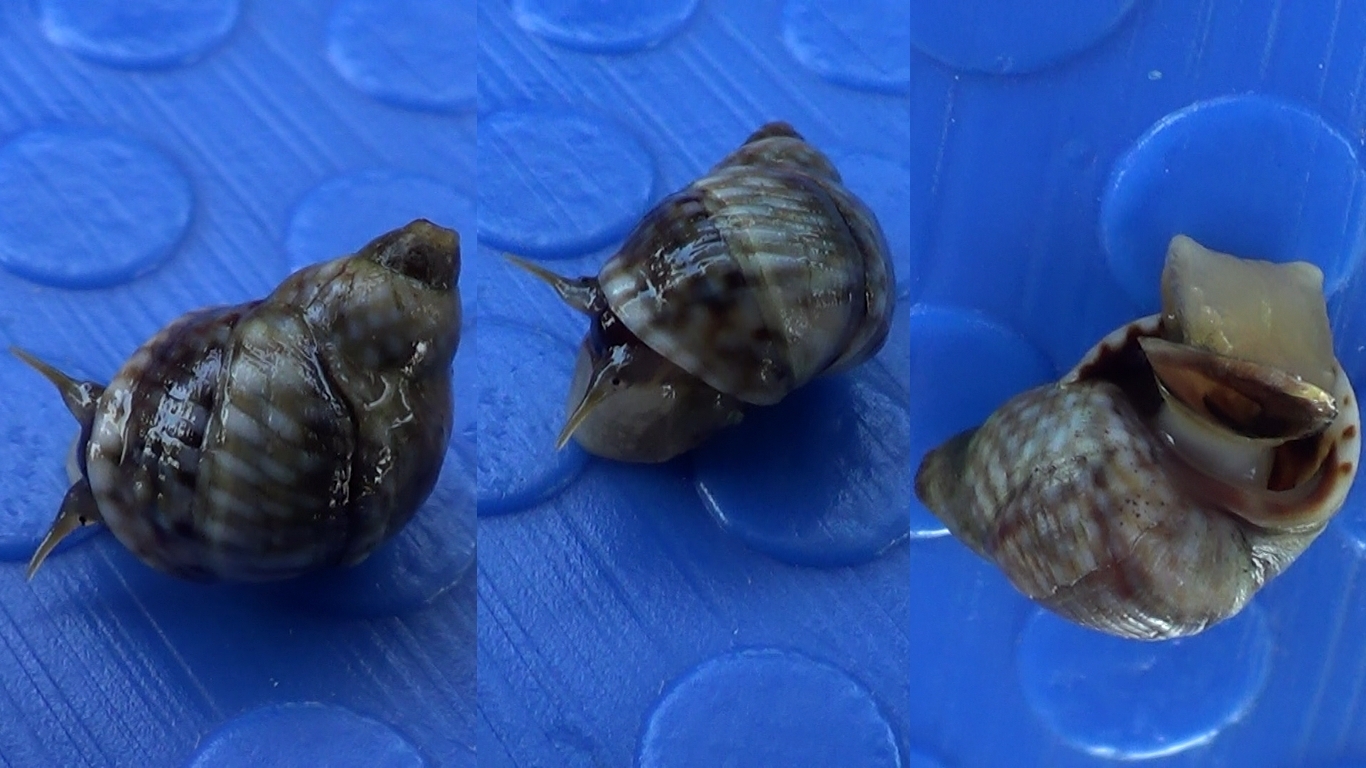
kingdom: Animalia
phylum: Mollusca
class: Gastropoda
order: Littorinimorpha
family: Littorinidae
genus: Echinolittorina
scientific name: Echinolittorina punctata
